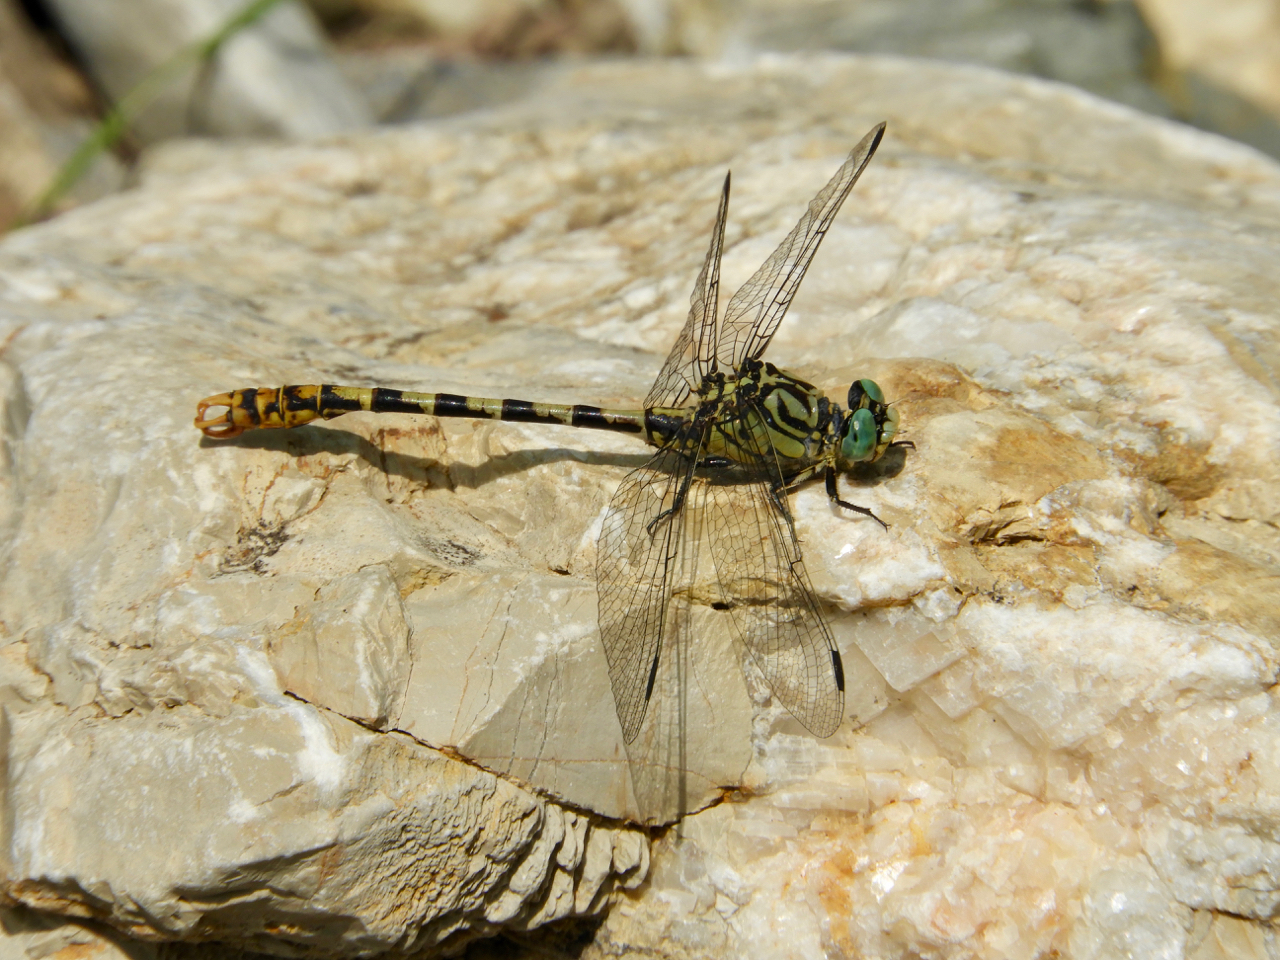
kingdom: Animalia
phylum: Arthropoda
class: Insecta
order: Odonata
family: Gomphidae
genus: Onychogomphus
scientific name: Onychogomphus forcipatus
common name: Small pincertail
